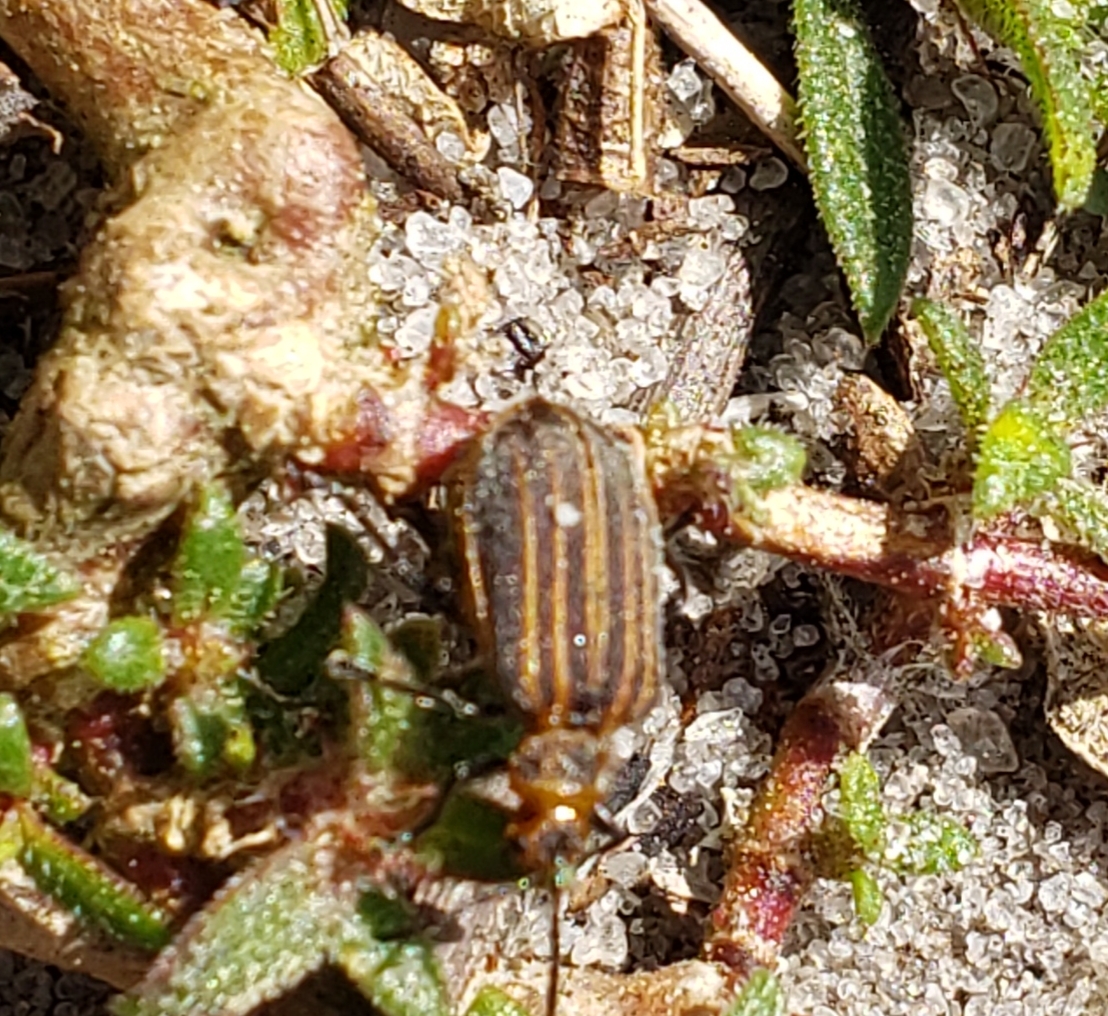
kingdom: Animalia
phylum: Arthropoda
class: Insecta
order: Coleoptera
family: Chrysomelidae
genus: Neolochmaea
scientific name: Neolochmaea dilatipennis
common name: Skeletonizing leaf beetle
